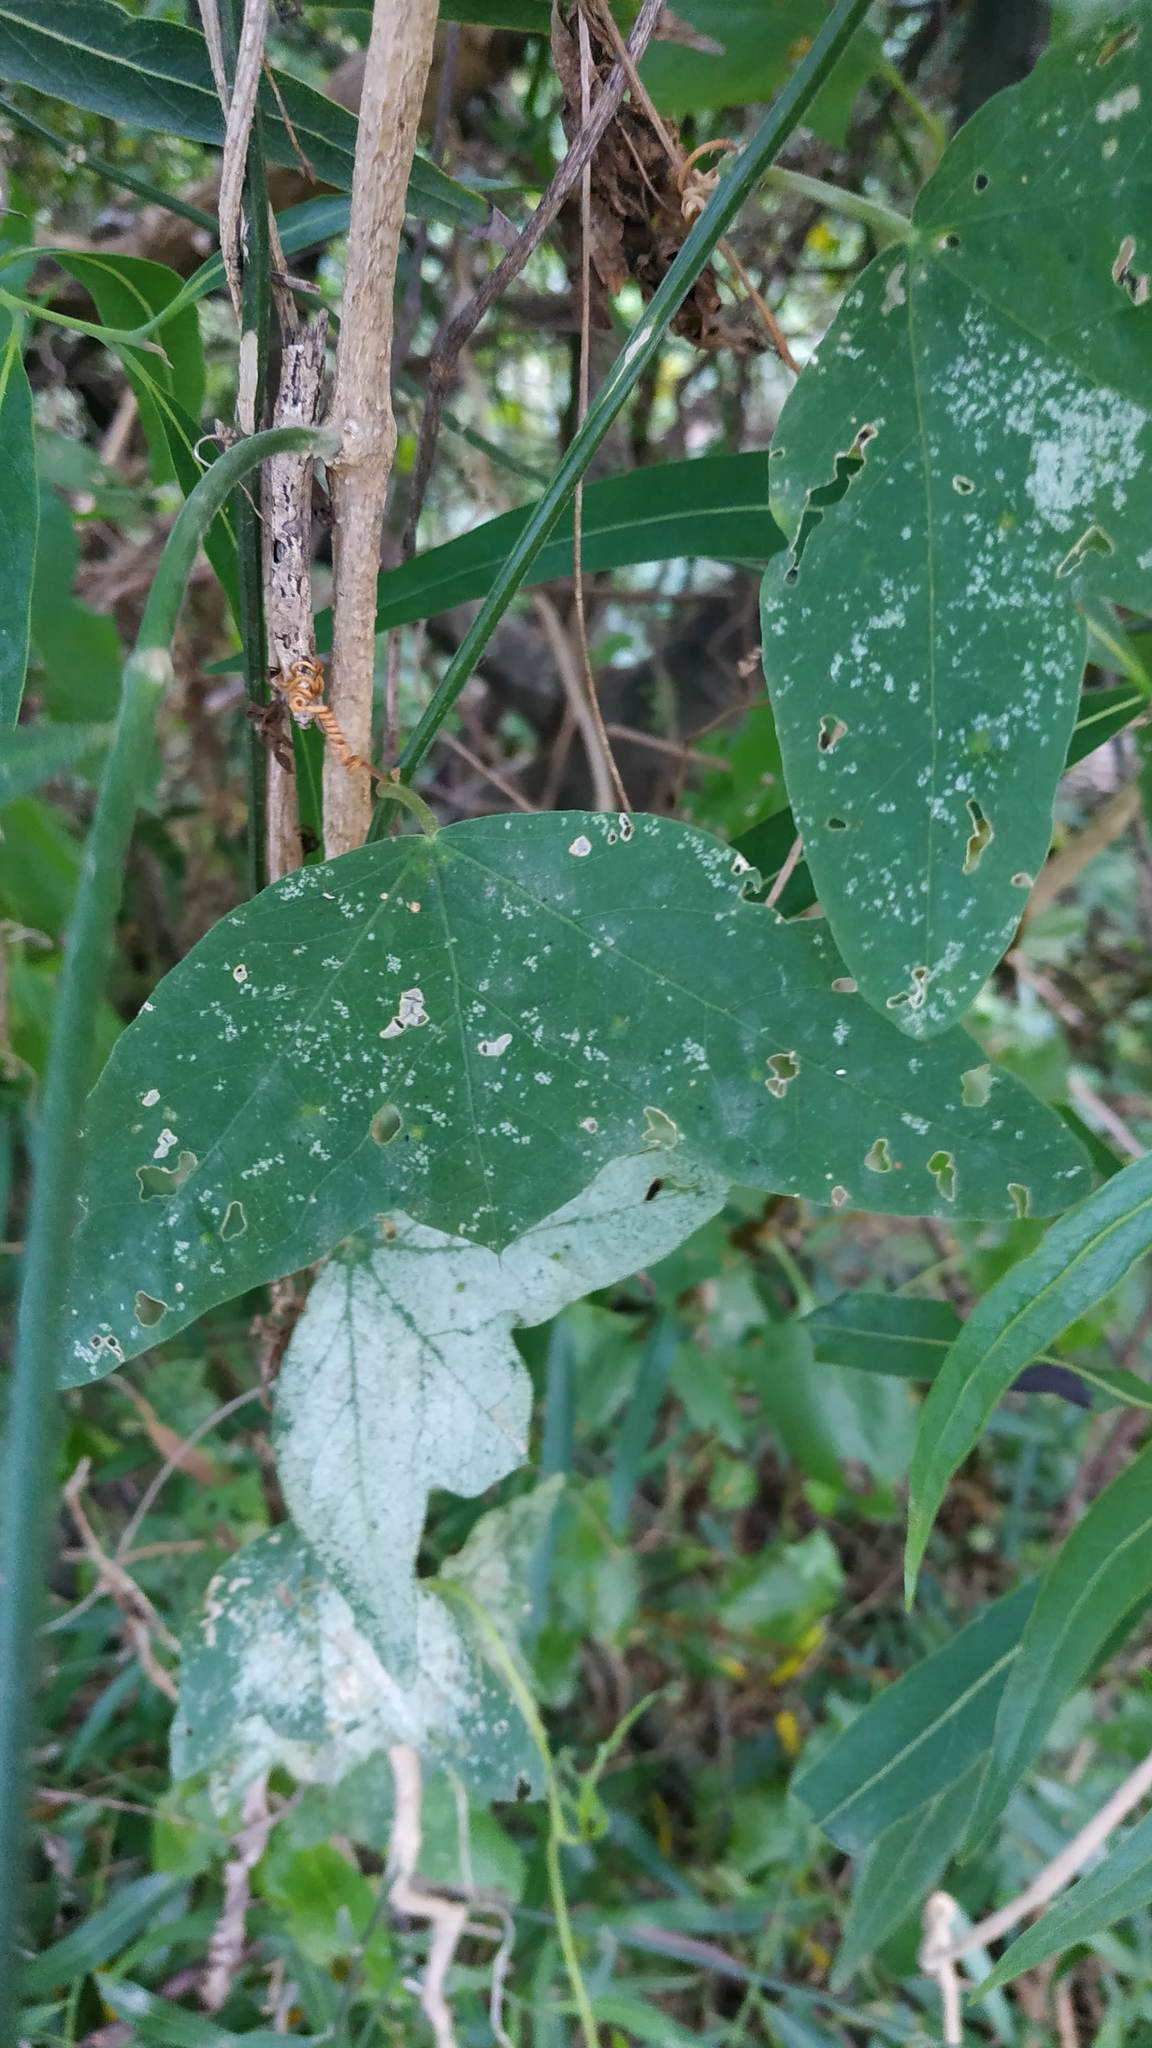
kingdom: Plantae
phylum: Tracheophyta
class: Magnoliopsida
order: Malpighiales
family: Passifloraceae
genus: Passiflora
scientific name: Passiflora misera
